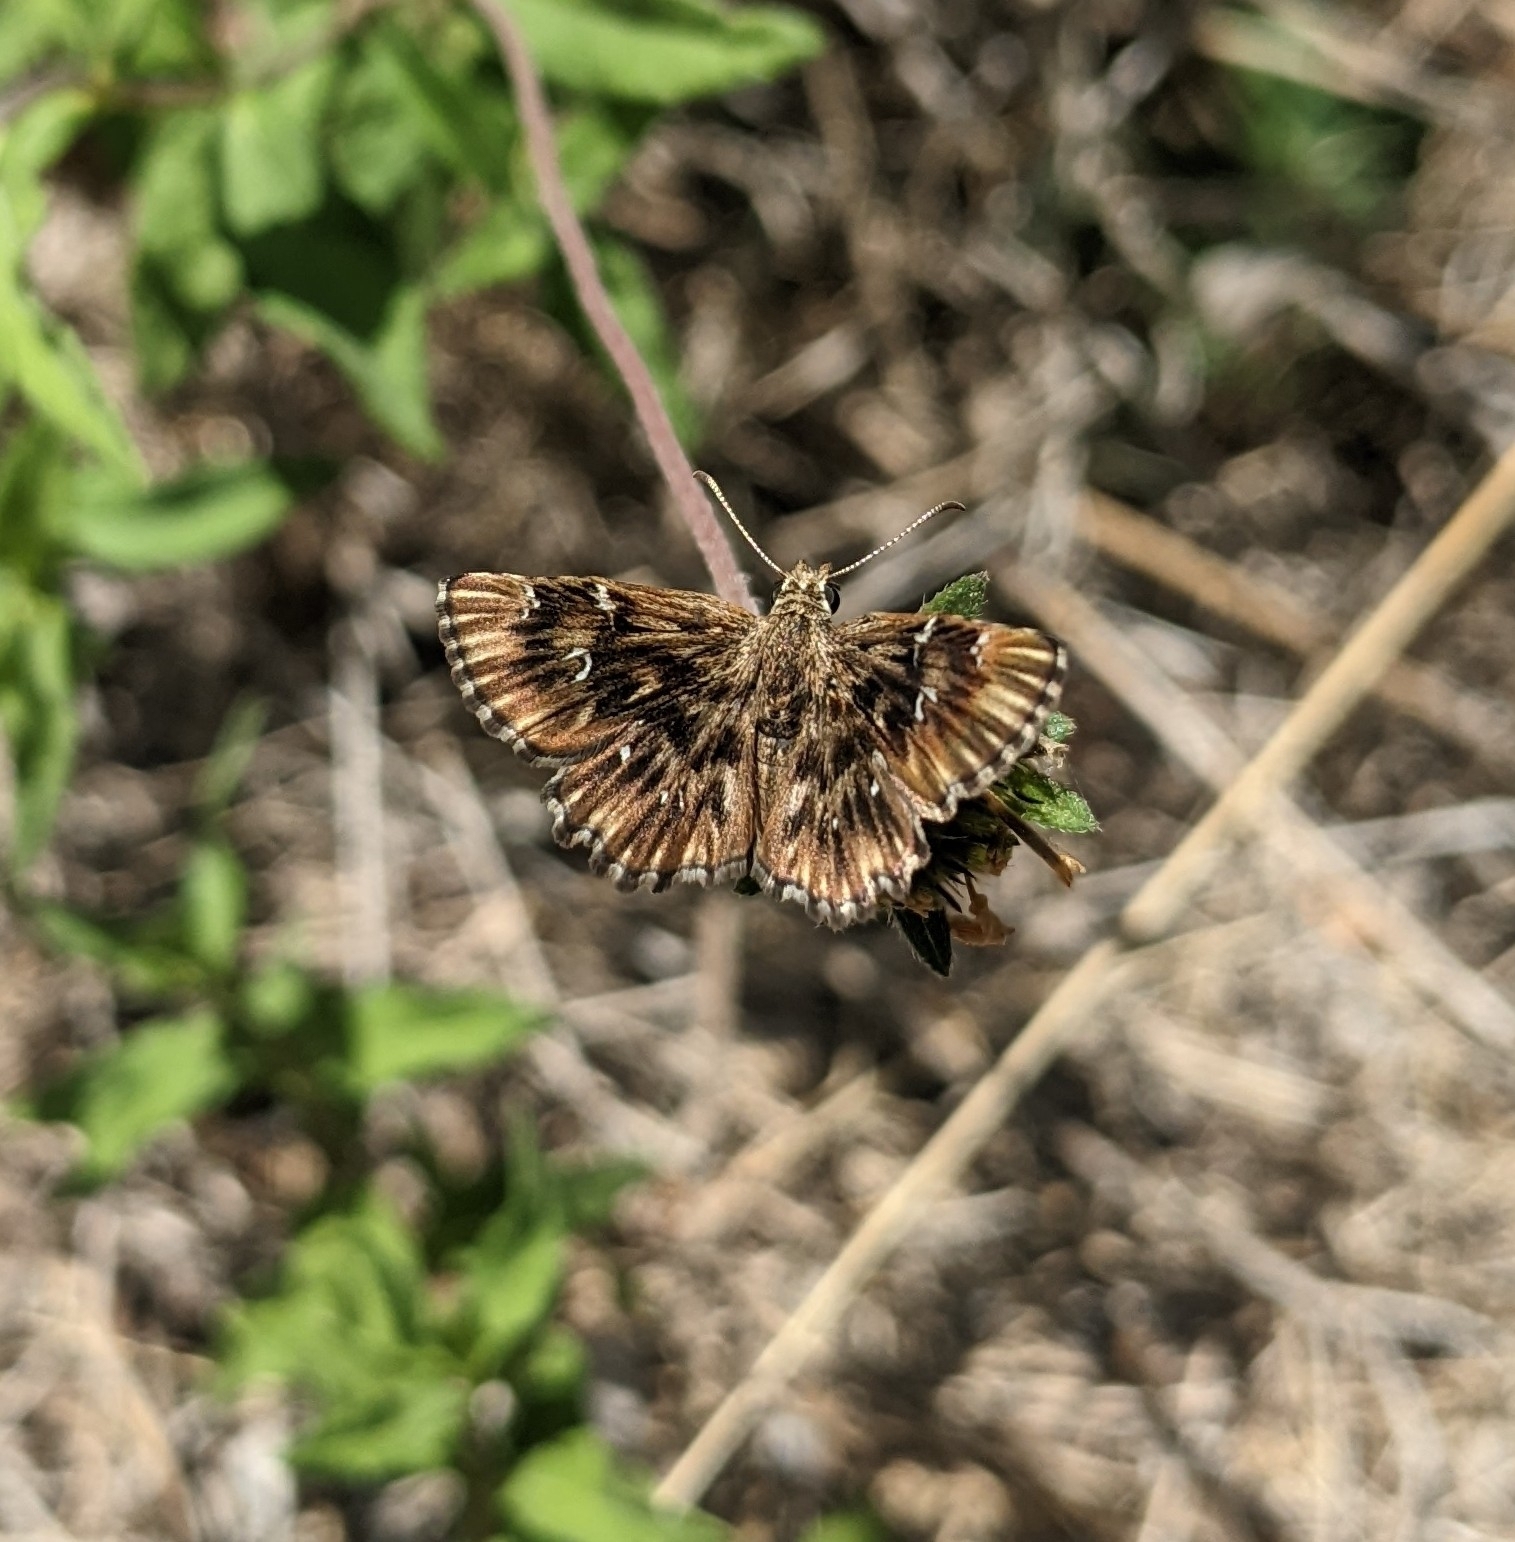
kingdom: Animalia
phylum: Arthropoda
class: Insecta
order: Lepidoptera
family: Hesperiidae
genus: Celotes
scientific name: Celotes nessus
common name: Common streaky-skipper
